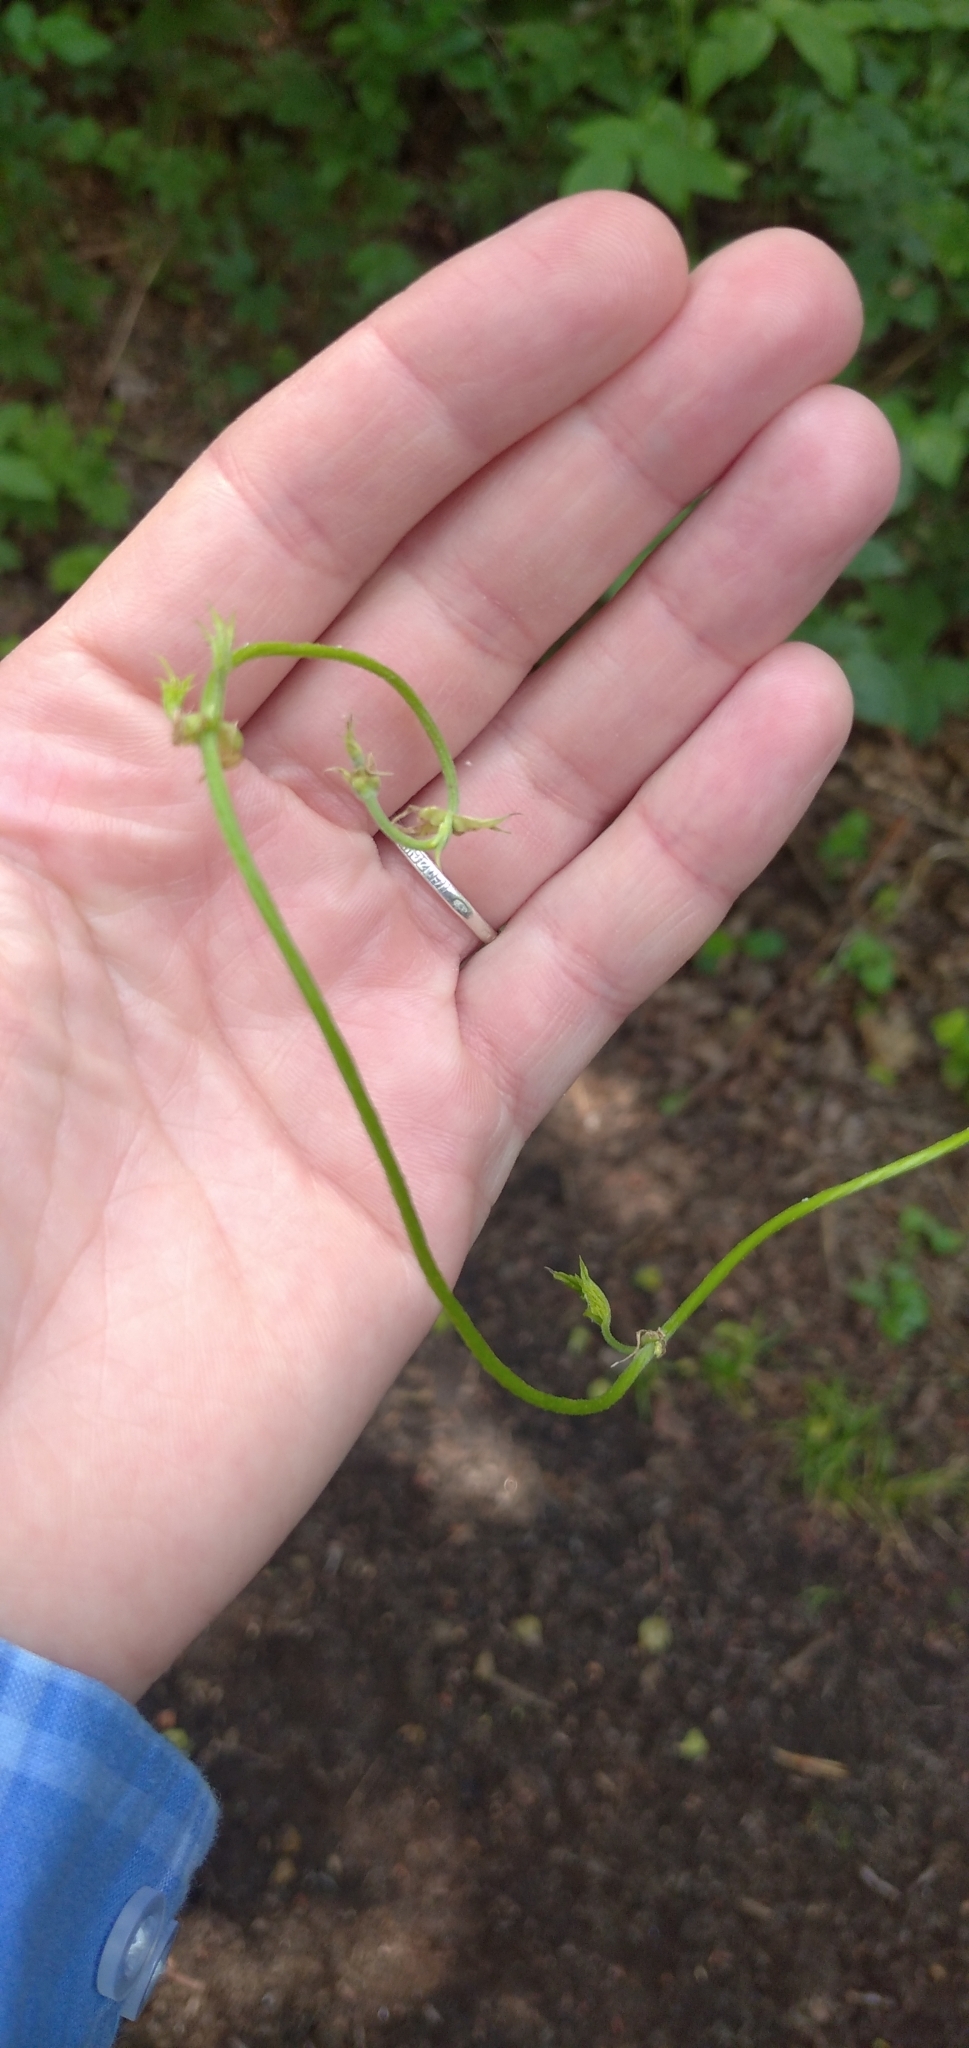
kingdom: Plantae
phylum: Tracheophyta
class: Magnoliopsida
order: Rosales
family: Cannabaceae
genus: Humulus
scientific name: Humulus lupulus
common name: Hop
